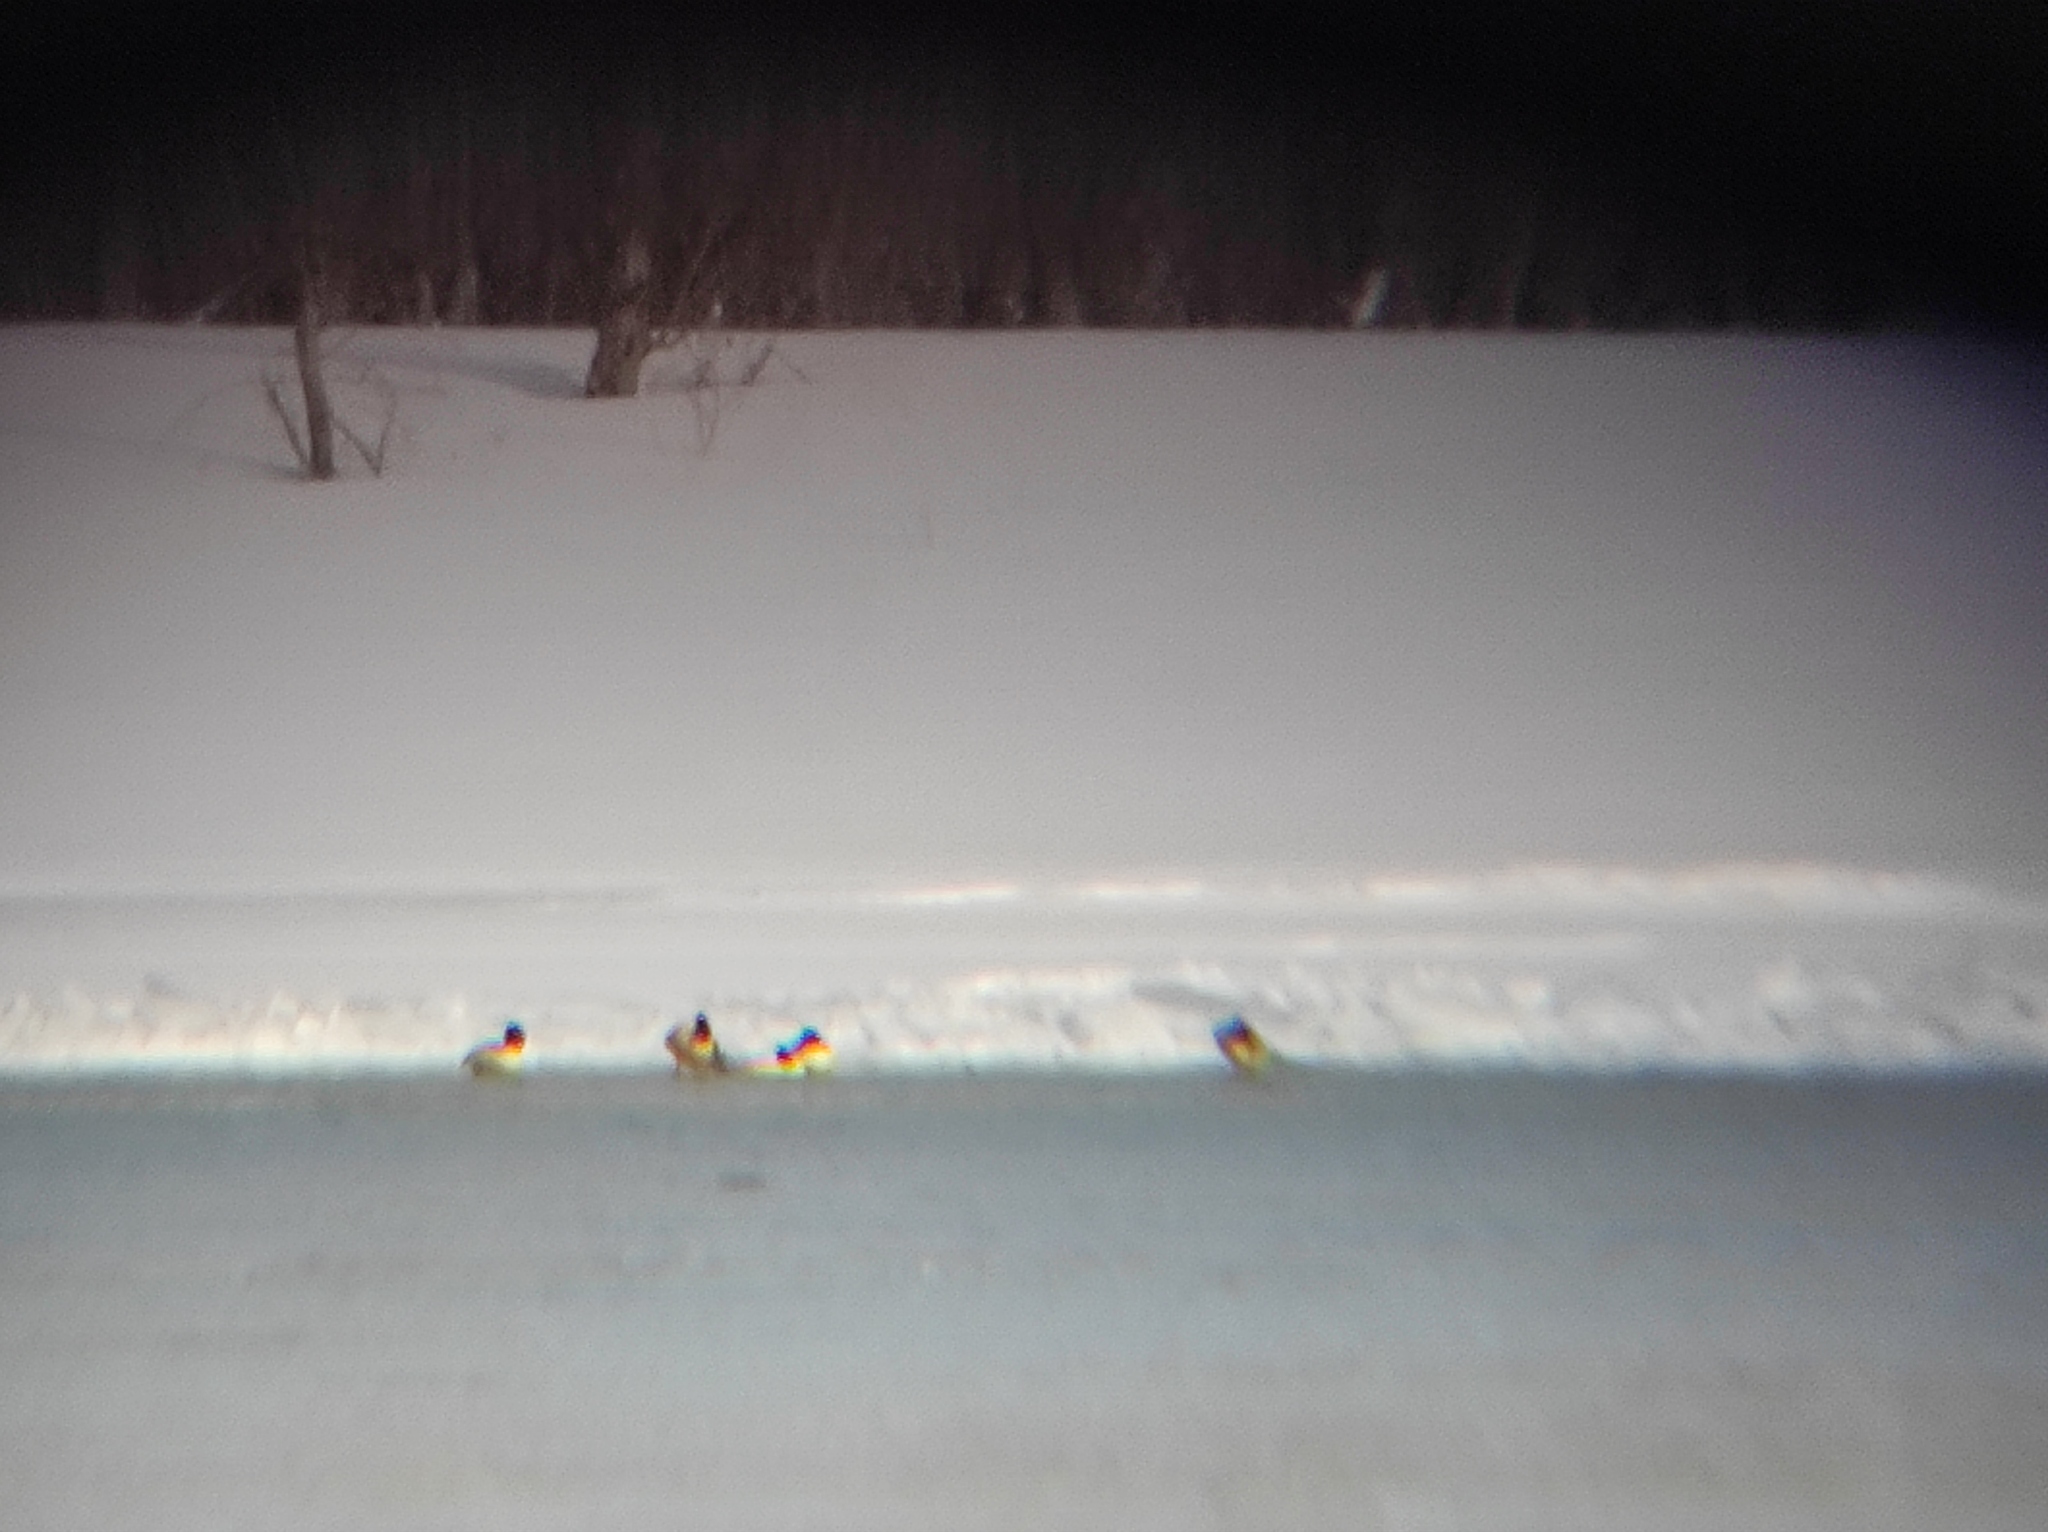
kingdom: Animalia
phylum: Chordata
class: Aves
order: Anseriformes
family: Anatidae
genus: Mergus
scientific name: Mergus merganser
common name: Common merganser
